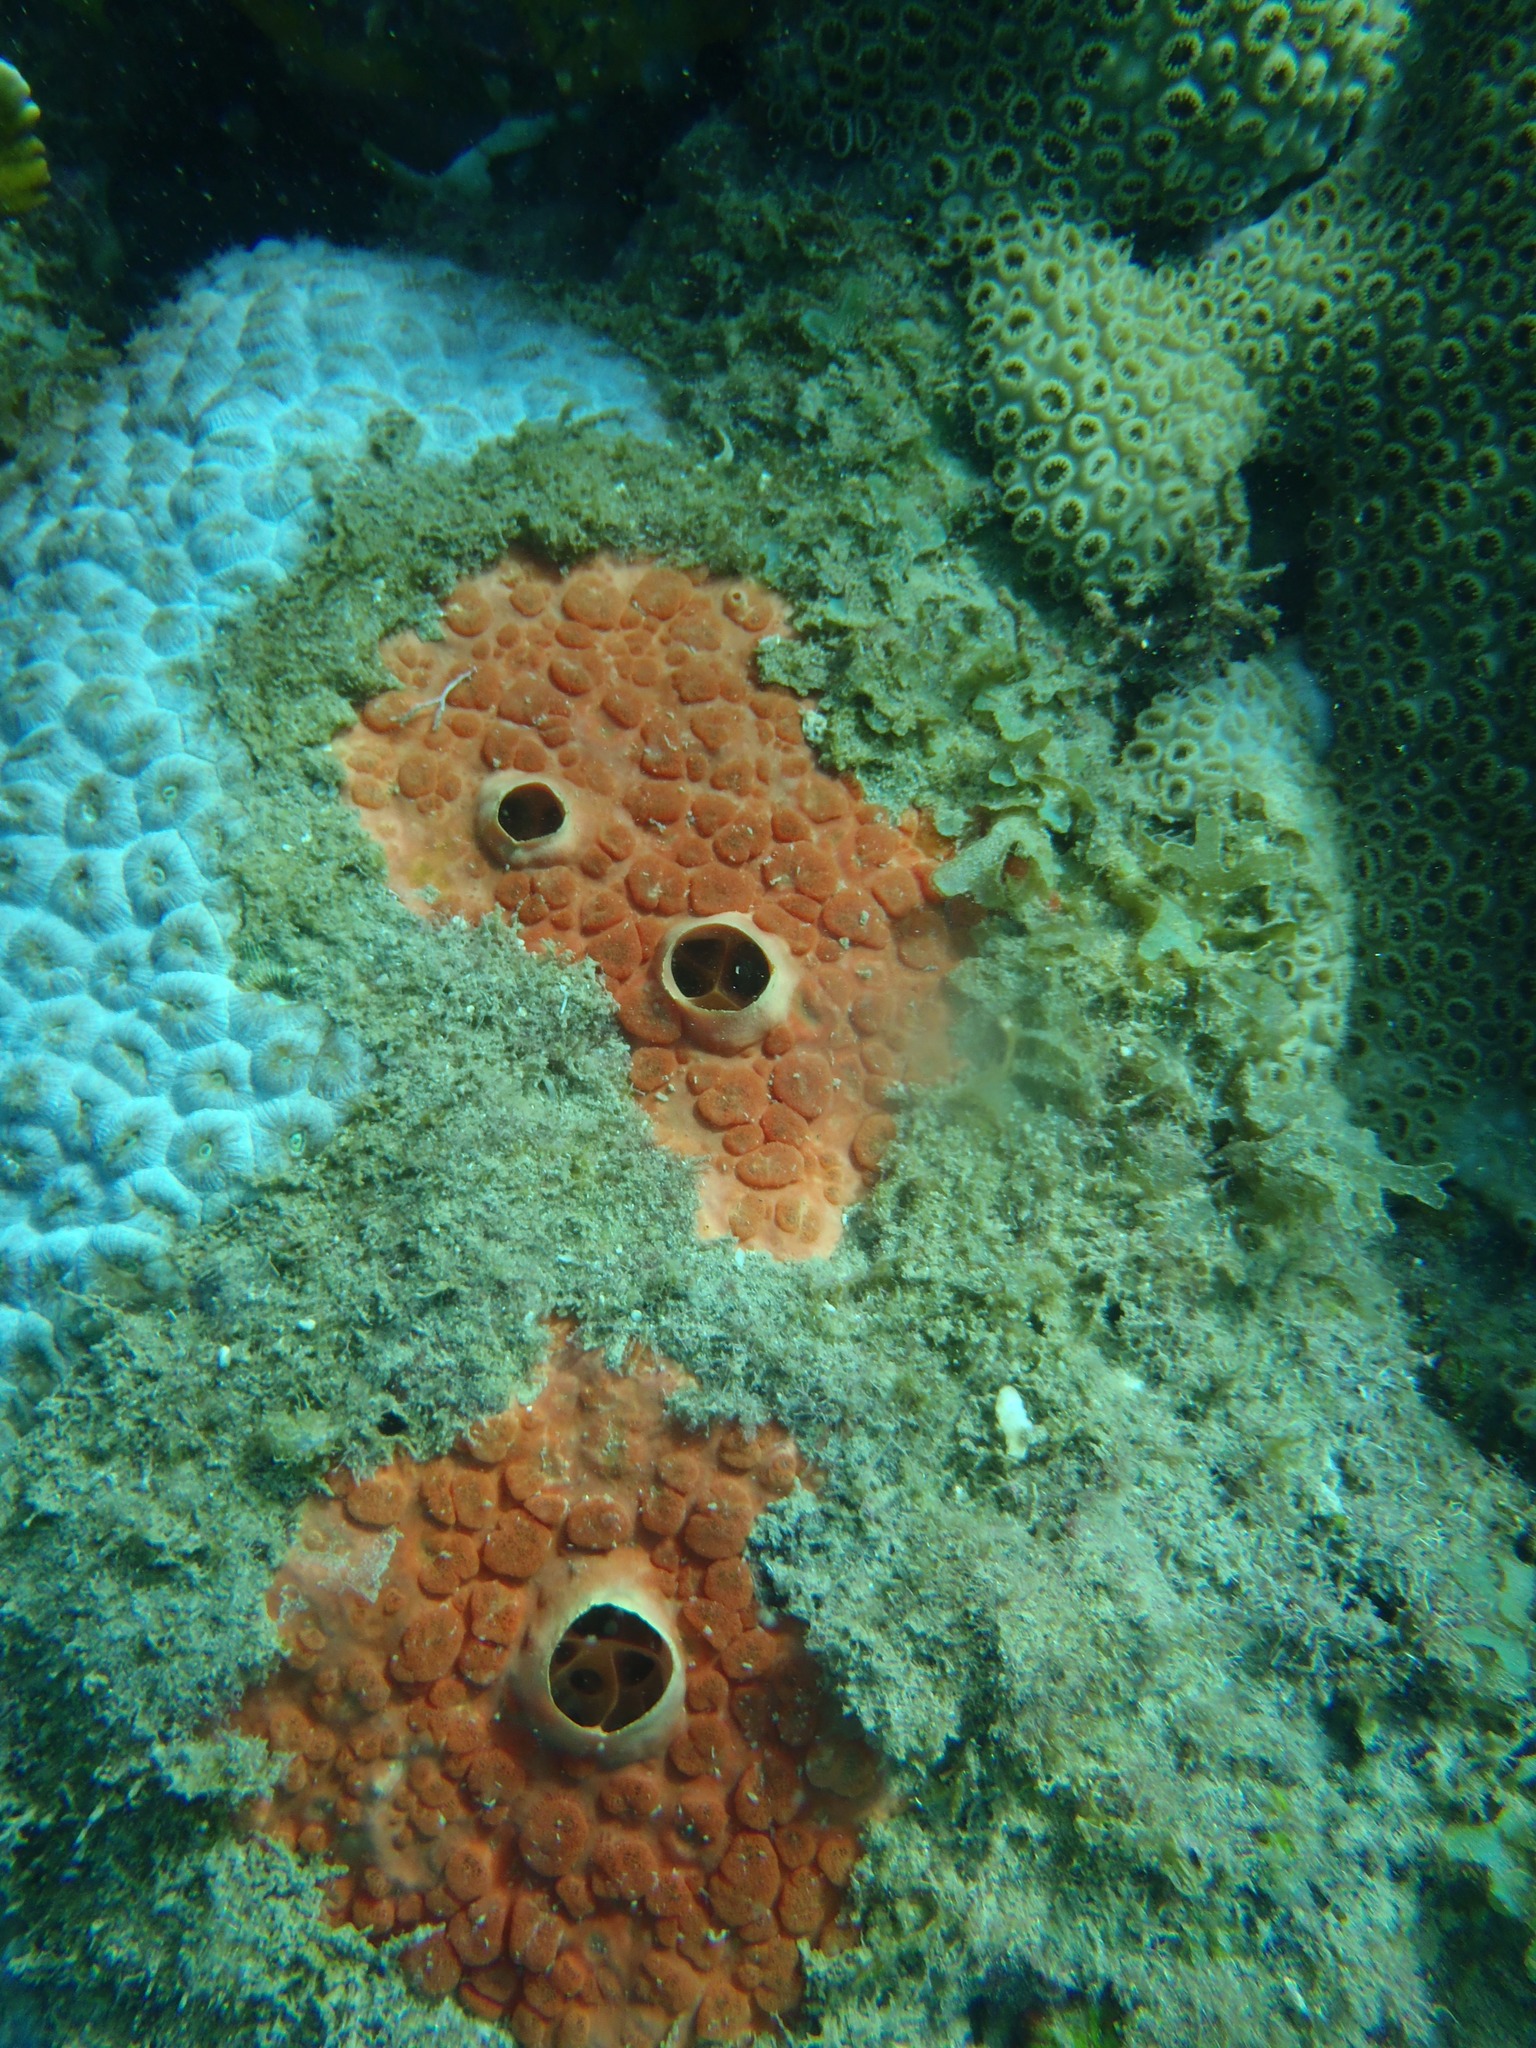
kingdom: Animalia
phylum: Porifera
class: Demospongiae
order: Clionaida
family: Clionaidae
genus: Cliothosa
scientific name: Cliothosa delitrix
